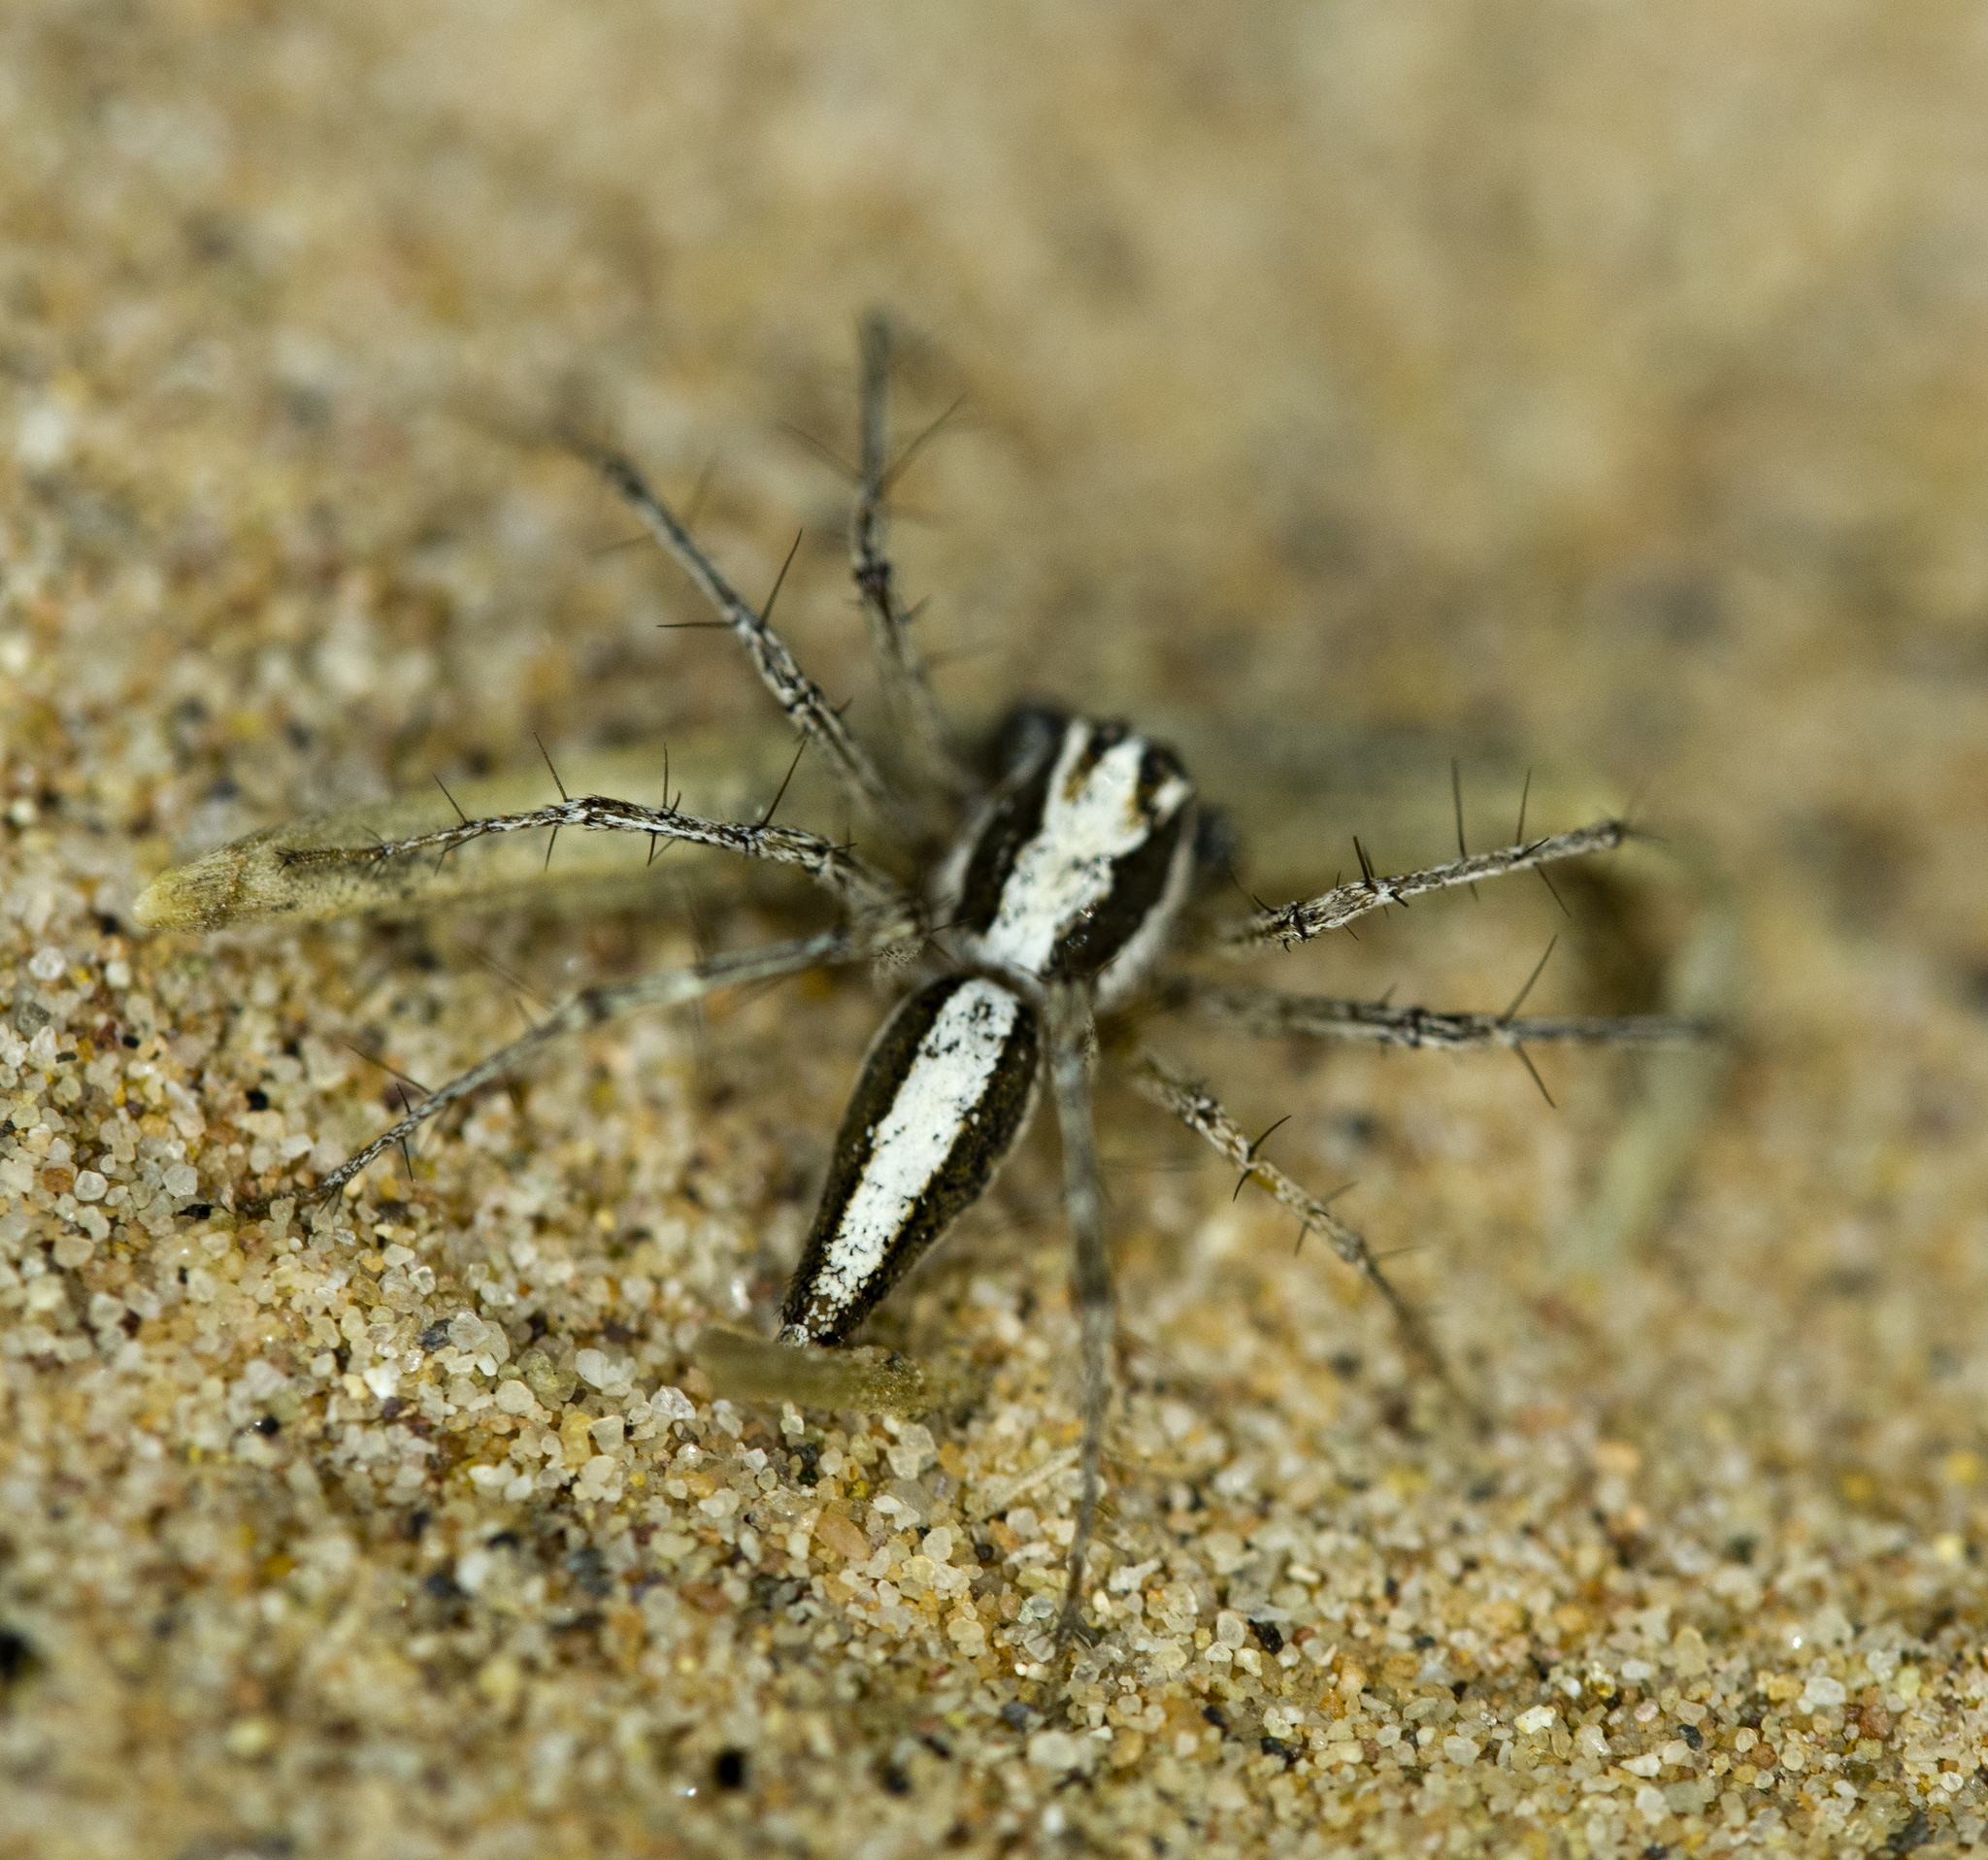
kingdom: Animalia
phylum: Arthropoda
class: Arachnida
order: Araneae
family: Oxyopidae
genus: Oxyopes
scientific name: Oxyopes tridens
